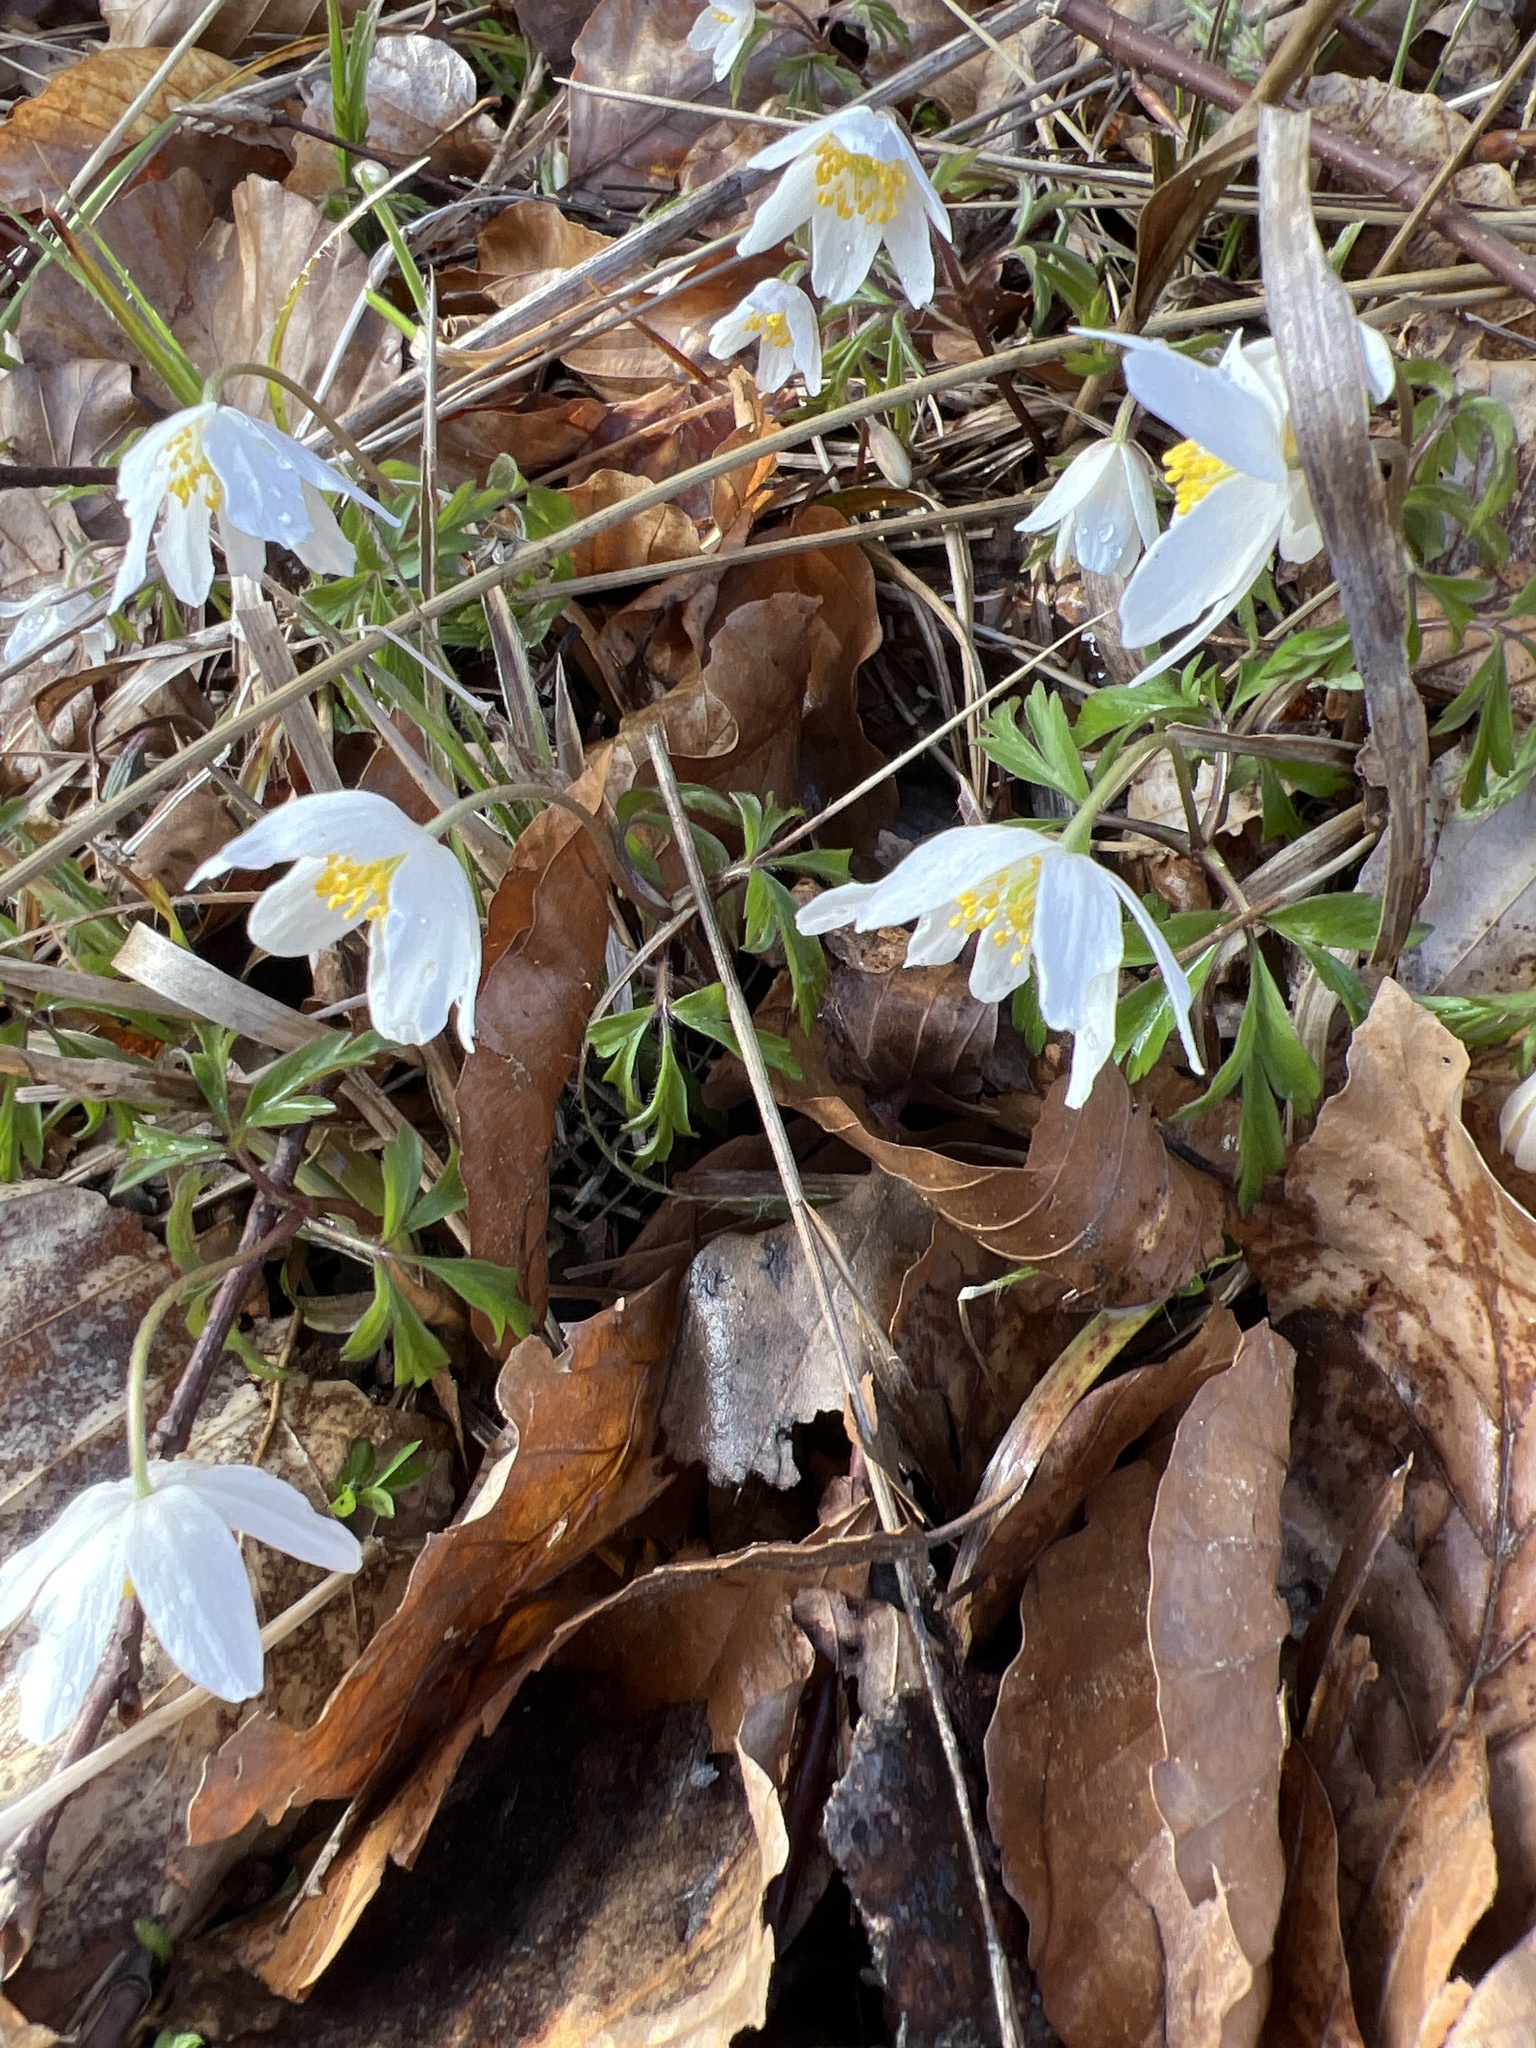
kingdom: Plantae
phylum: Tracheophyta
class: Magnoliopsida
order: Ranunculales
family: Ranunculaceae
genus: Anemone
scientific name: Anemone nemorosa
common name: Wood anemone
